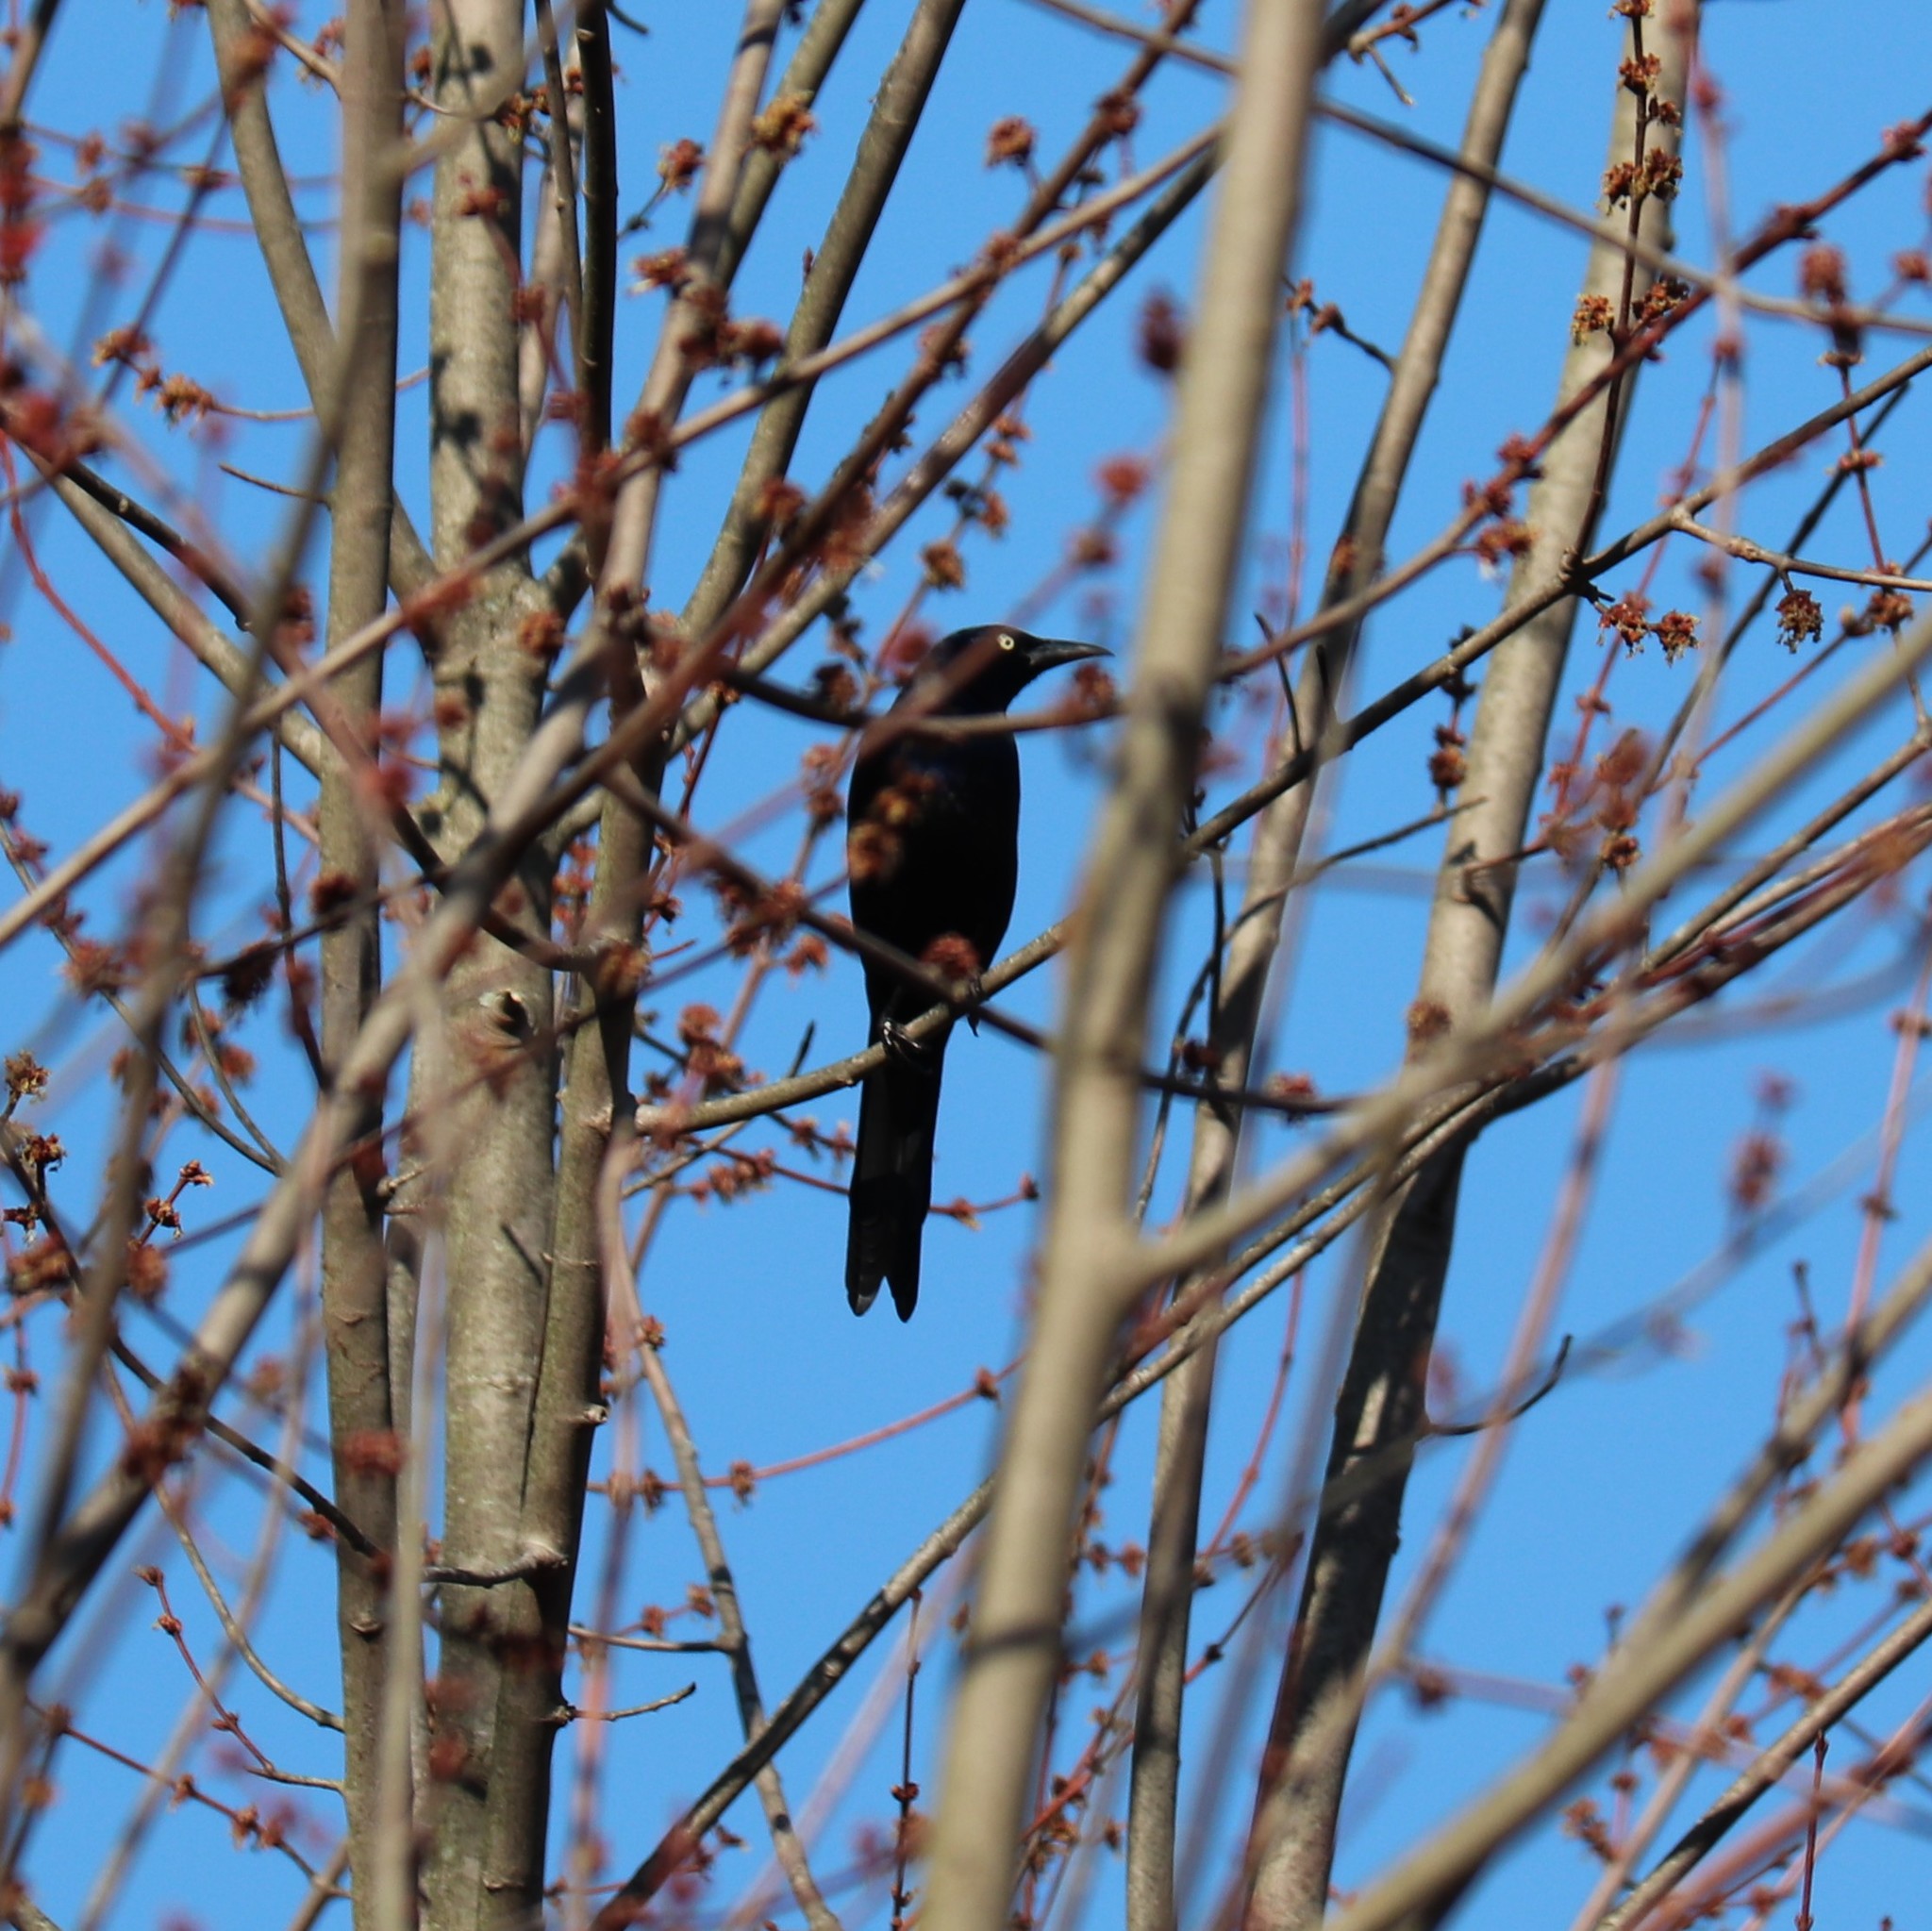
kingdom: Animalia
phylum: Chordata
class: Aves
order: Passeriformes
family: Icteridae
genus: Quiscalus
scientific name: Quiscalus quiscula
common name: Common grackle
